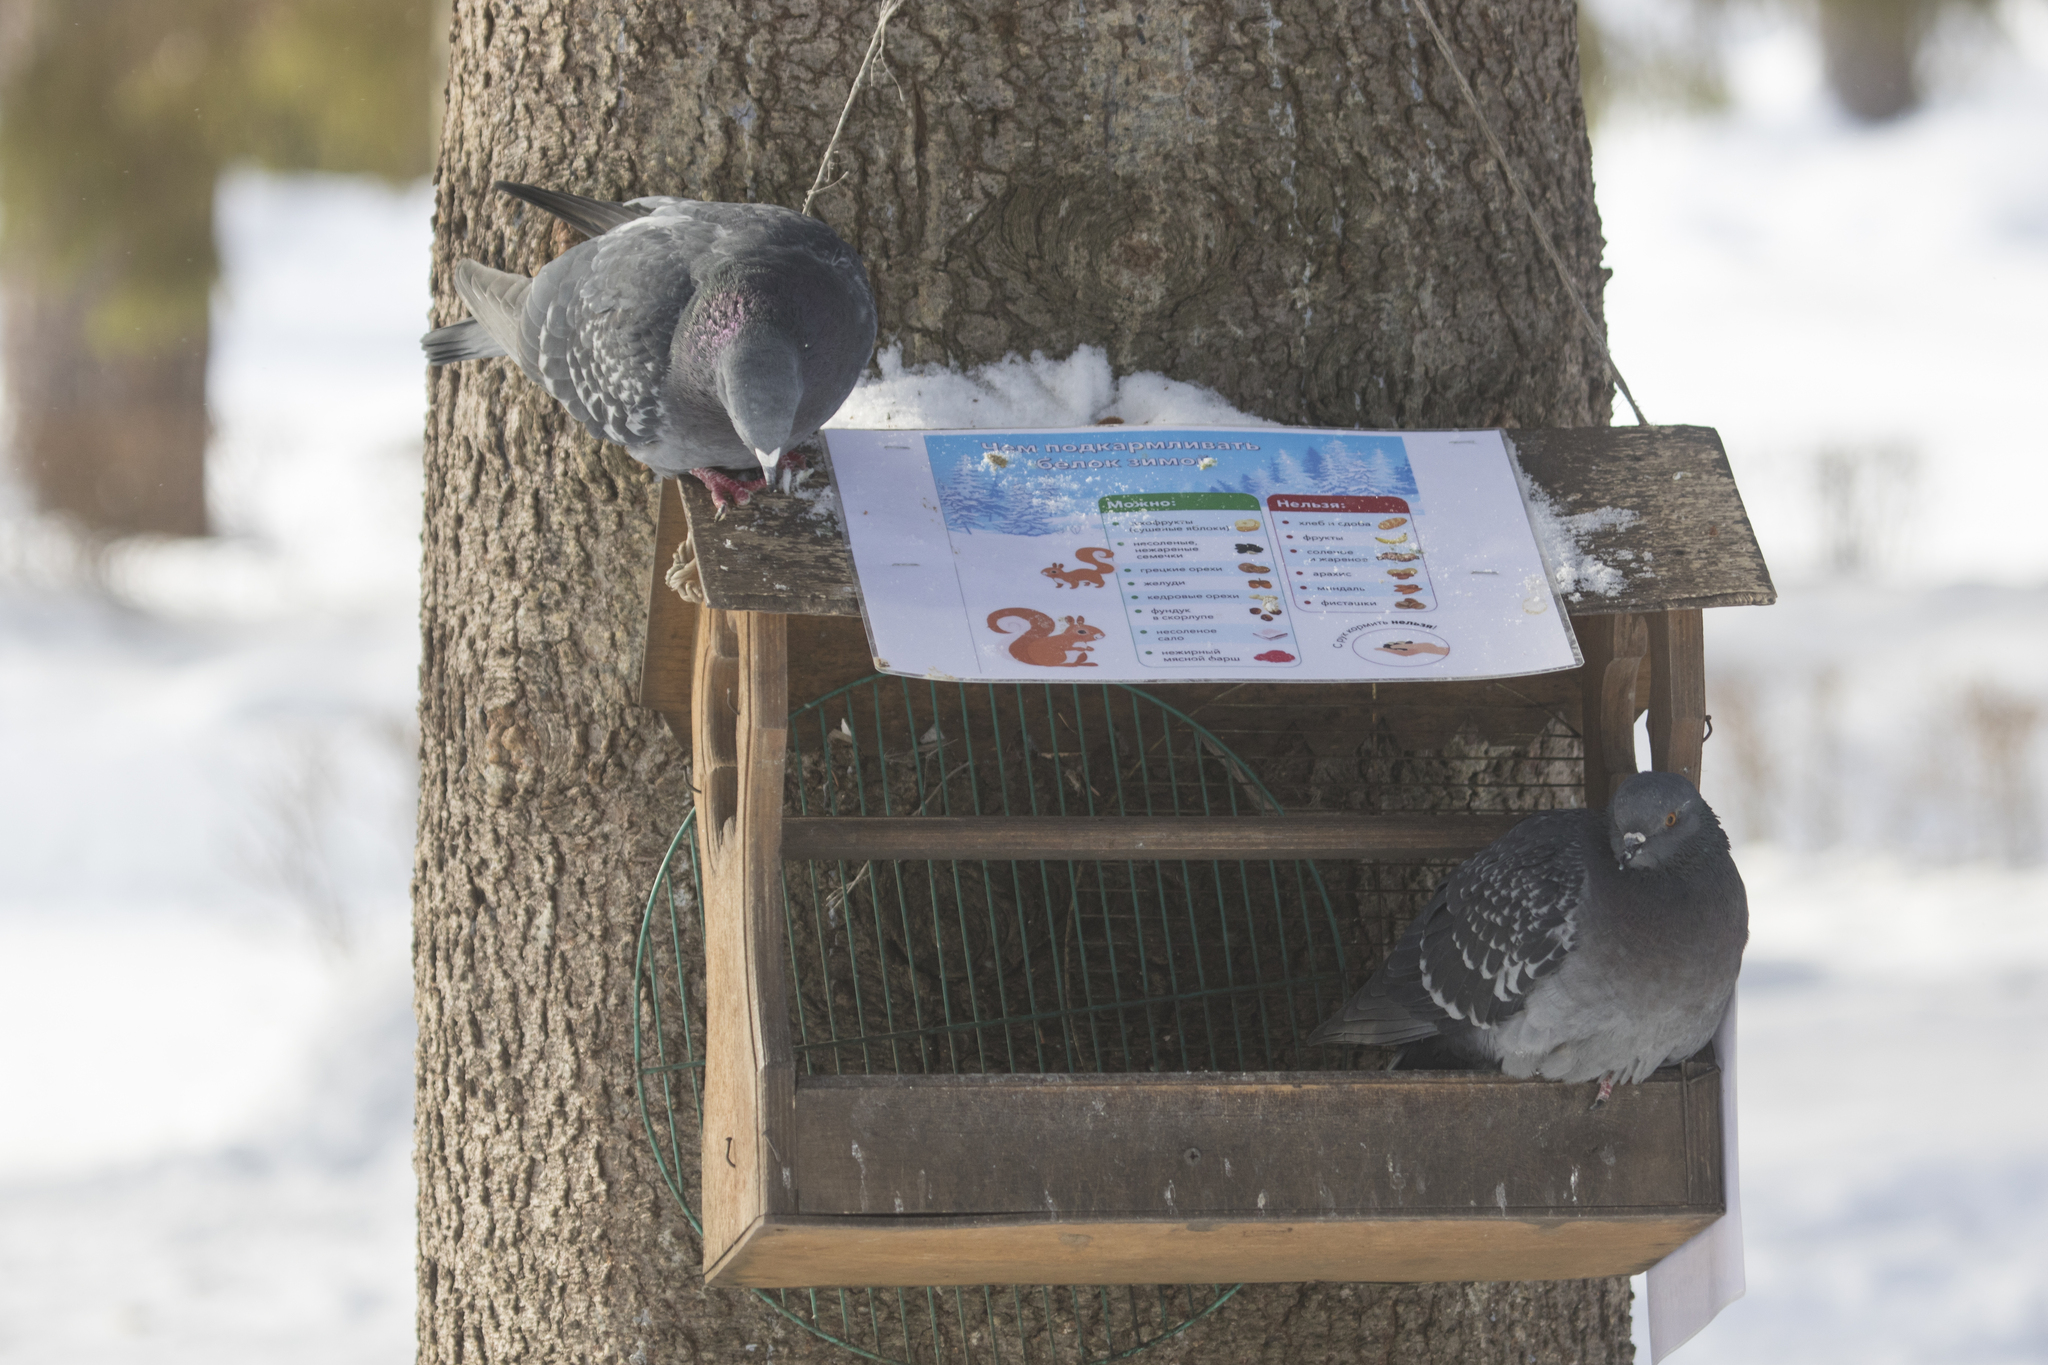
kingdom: Animalia
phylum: Chordata
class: Aves
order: Columbiformes
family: Columbidae
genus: Columba
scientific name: Columba livia
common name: Rock pigeon
